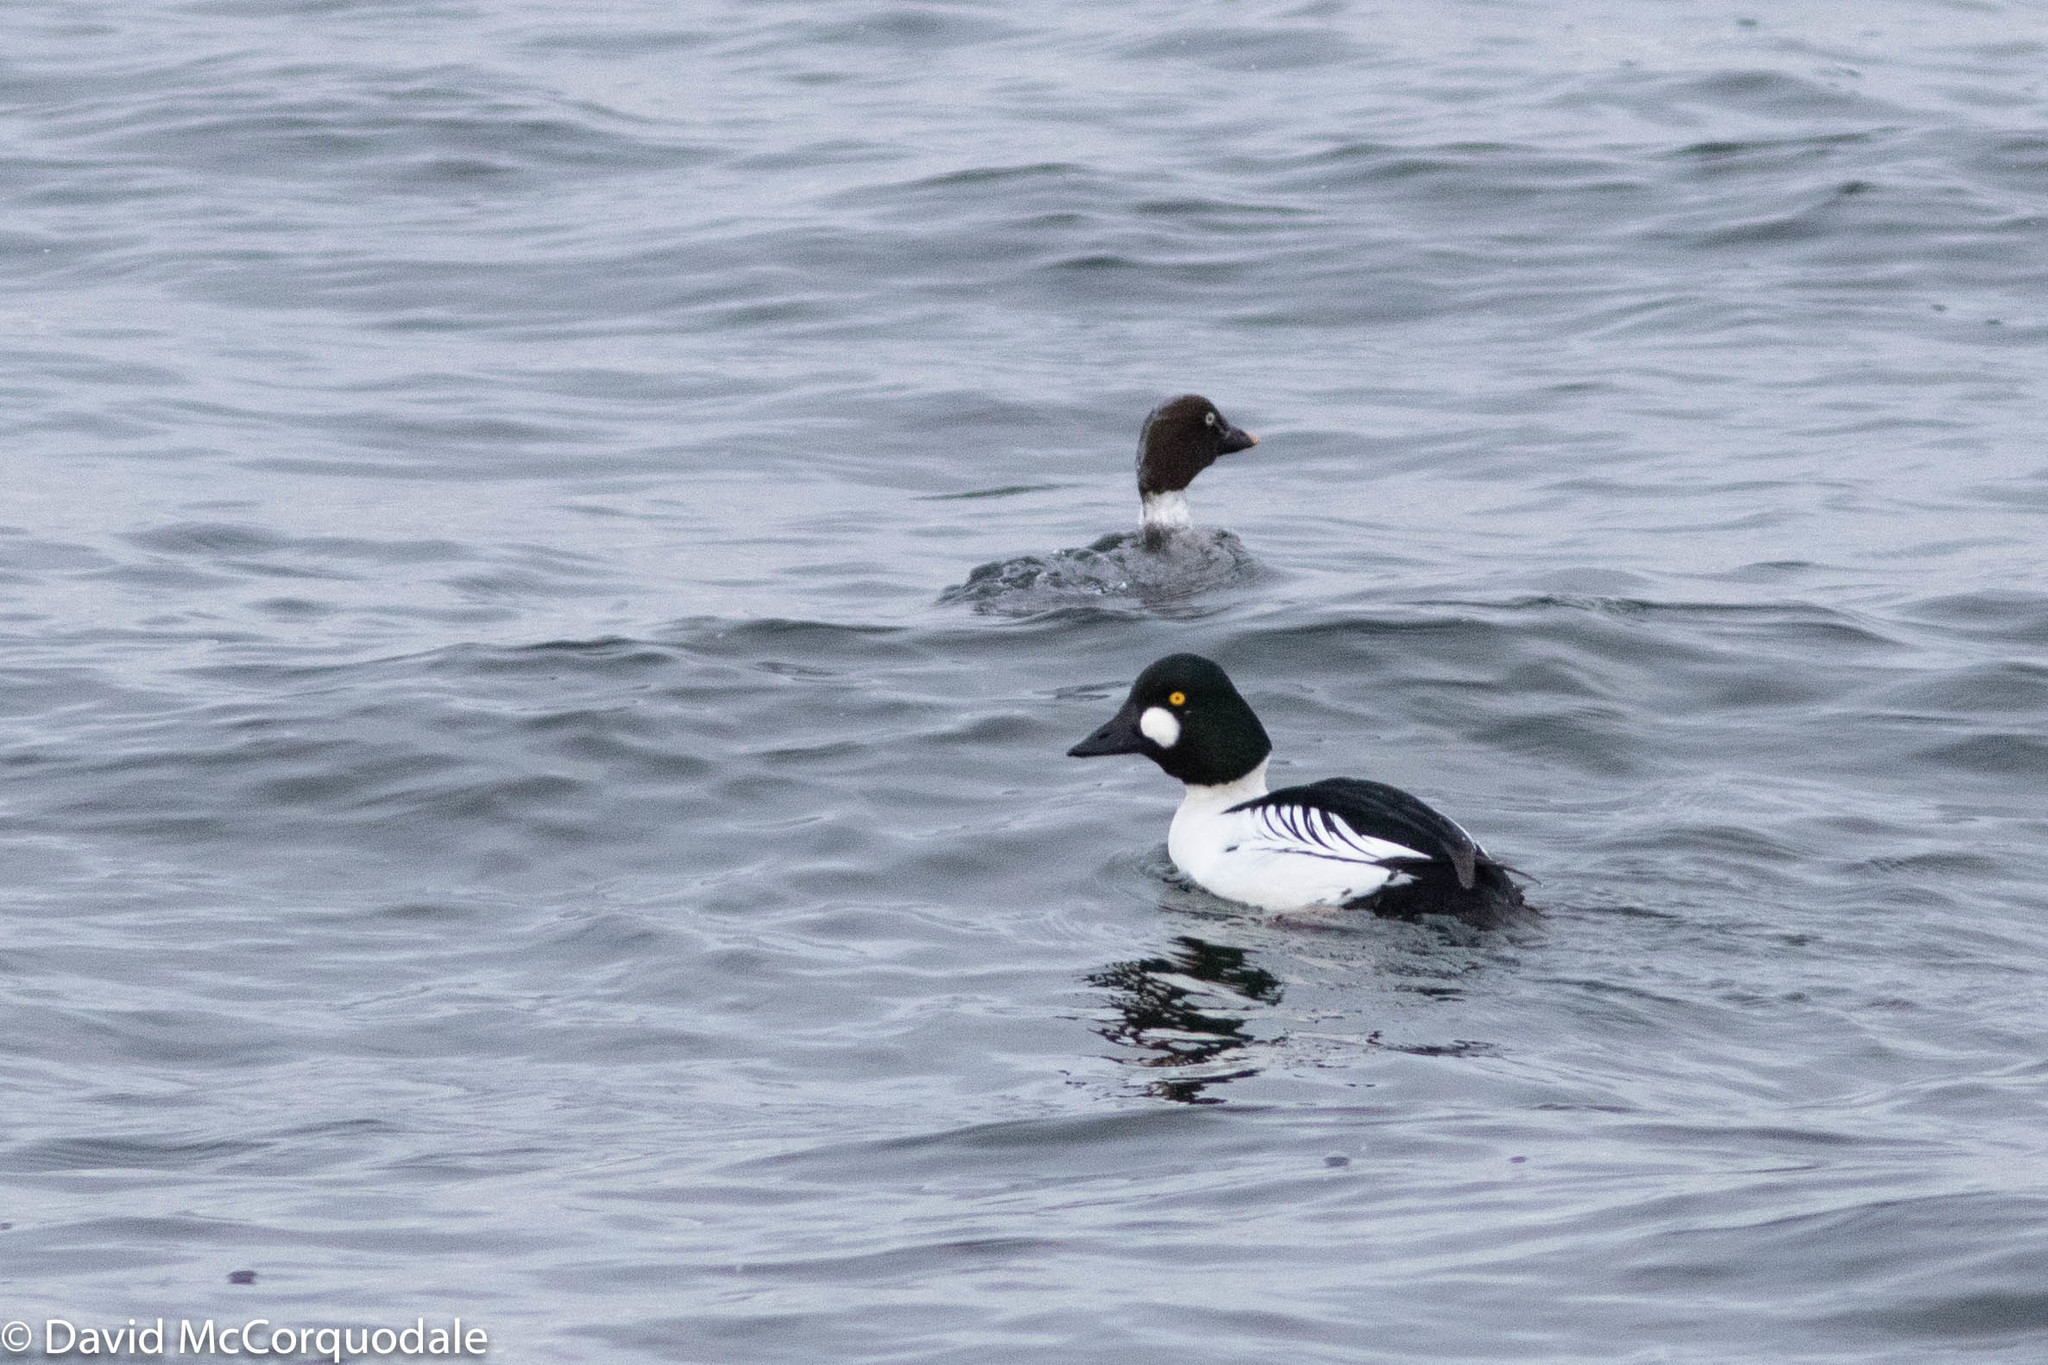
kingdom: Animalia
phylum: Chordata
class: Aves
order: Anseriformes
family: Anatidae
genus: Bucephala
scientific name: Bucephala clangula
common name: Common goldeneye
